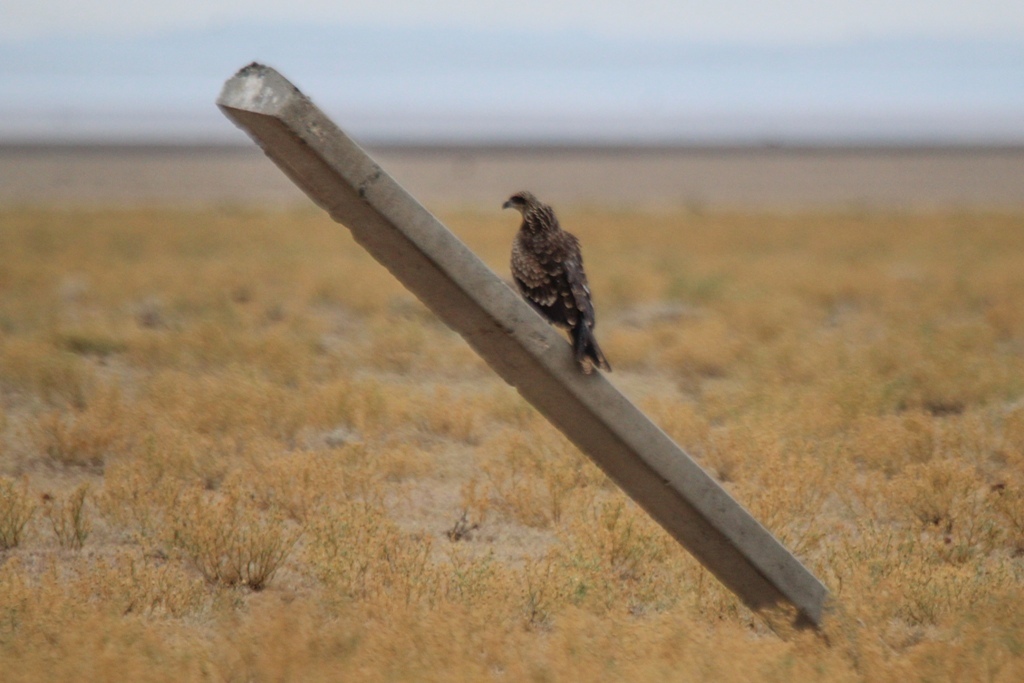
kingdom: Animalia
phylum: Chordata
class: Aves
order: Accipitriformes
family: Accipitridae
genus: Milvus
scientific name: Milvus migrans
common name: Black kite
